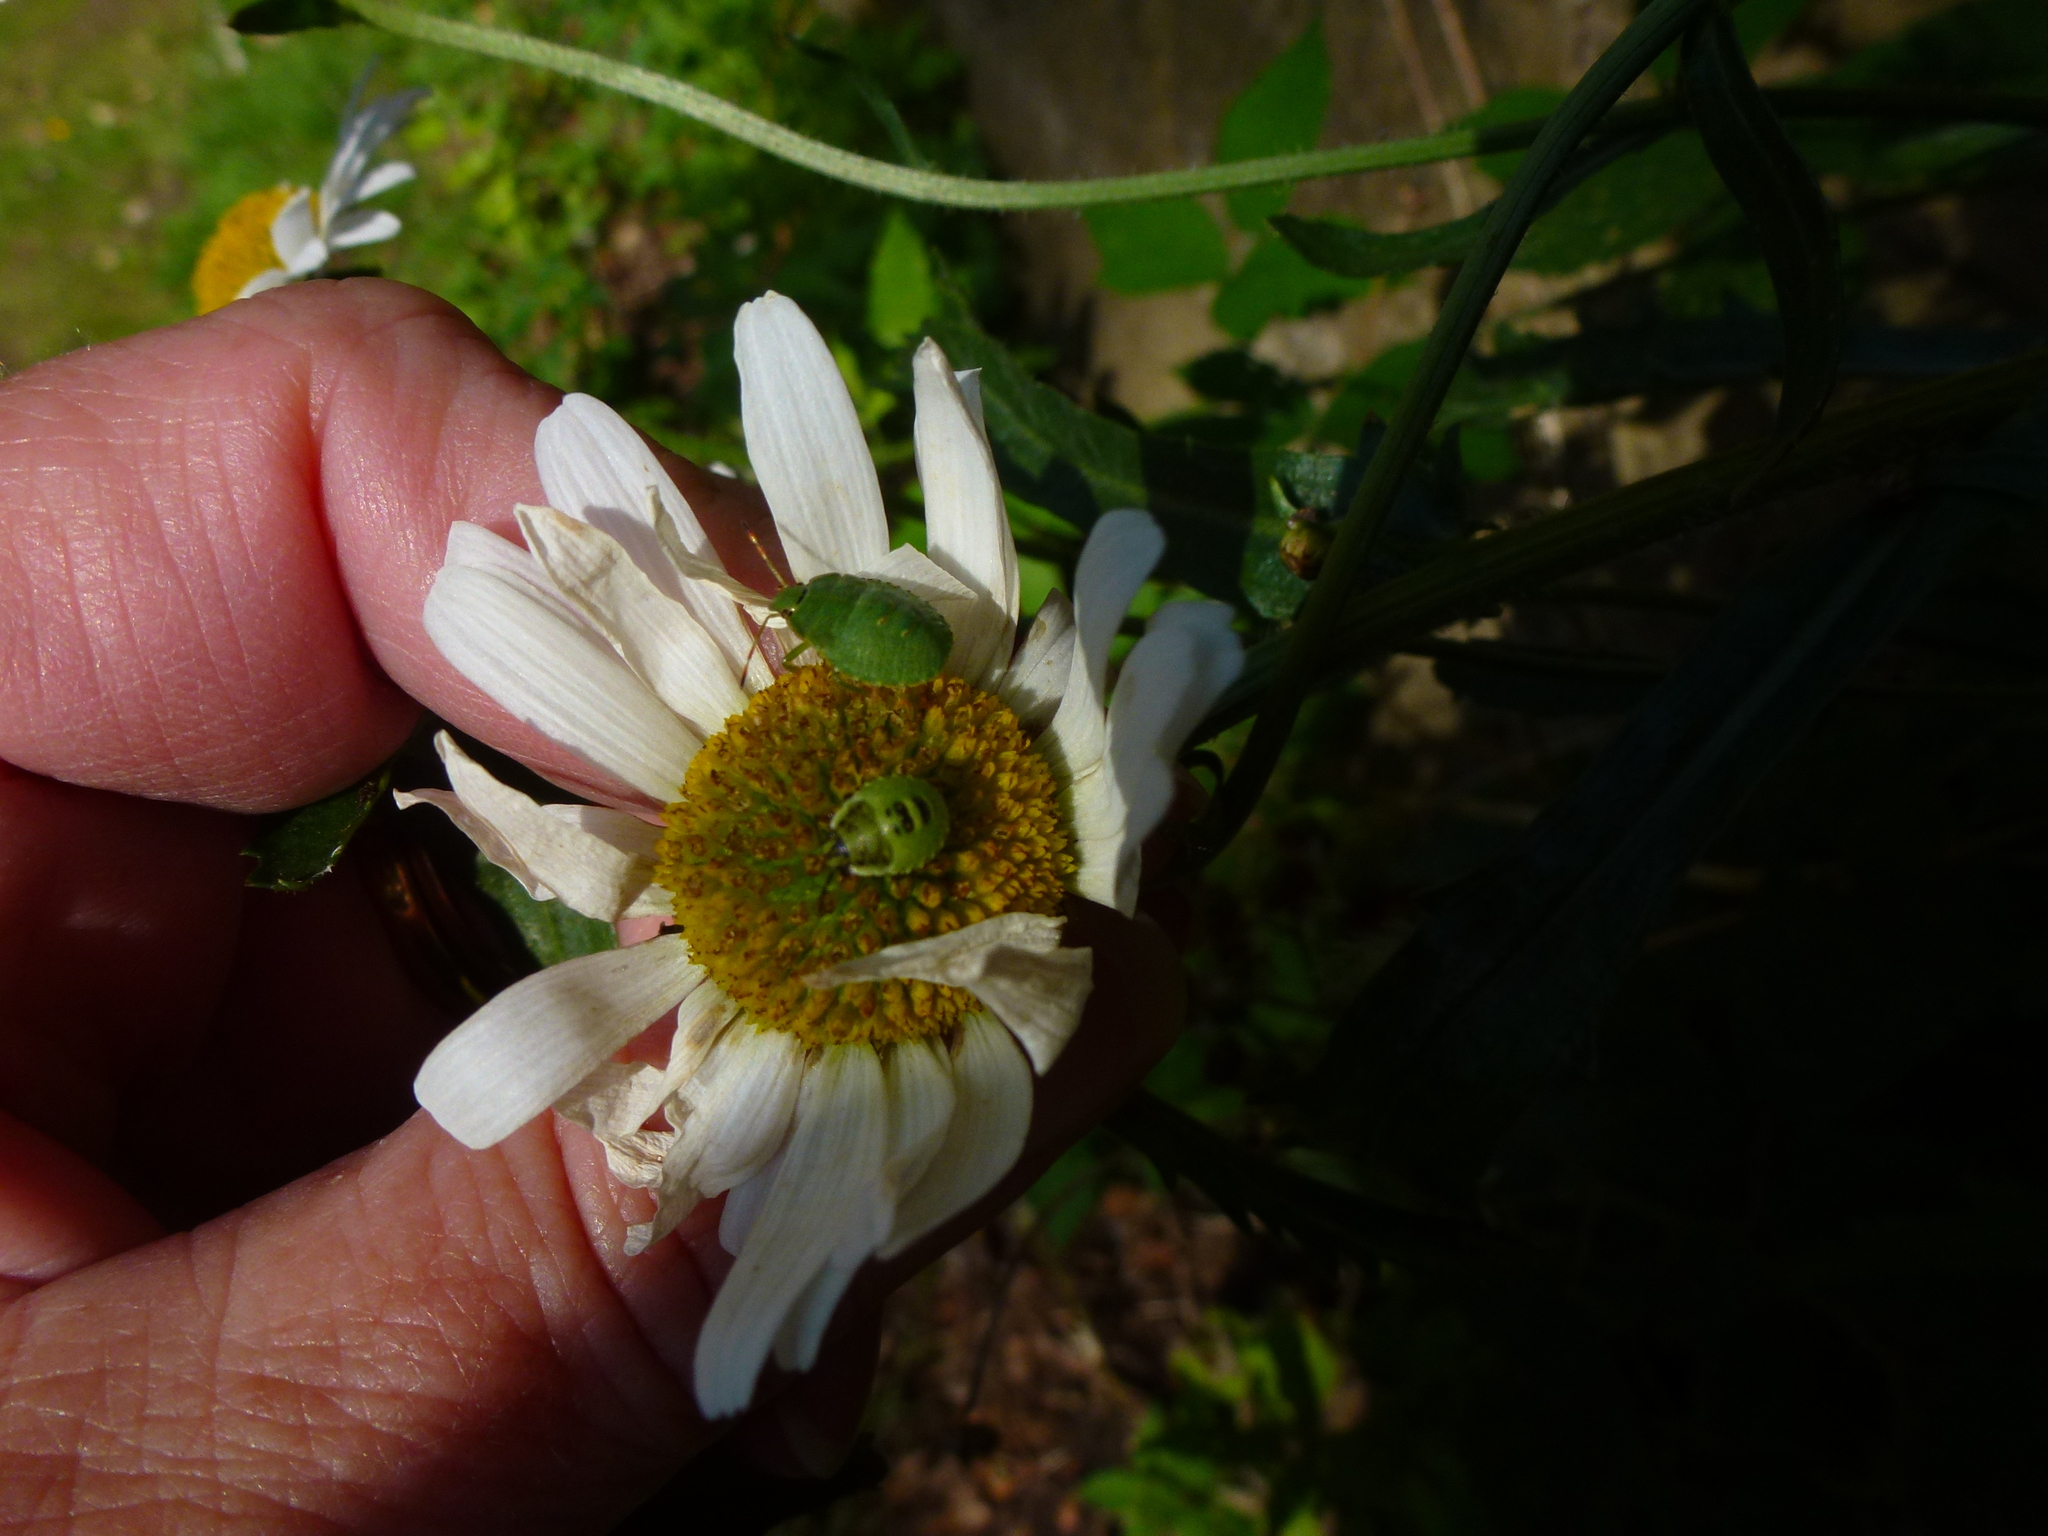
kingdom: Animalia
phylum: Arthropoda
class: Insecta
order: Hemiptera
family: Pentatomidae
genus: Palomena
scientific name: Palomena prasina
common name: Green shieldbug
